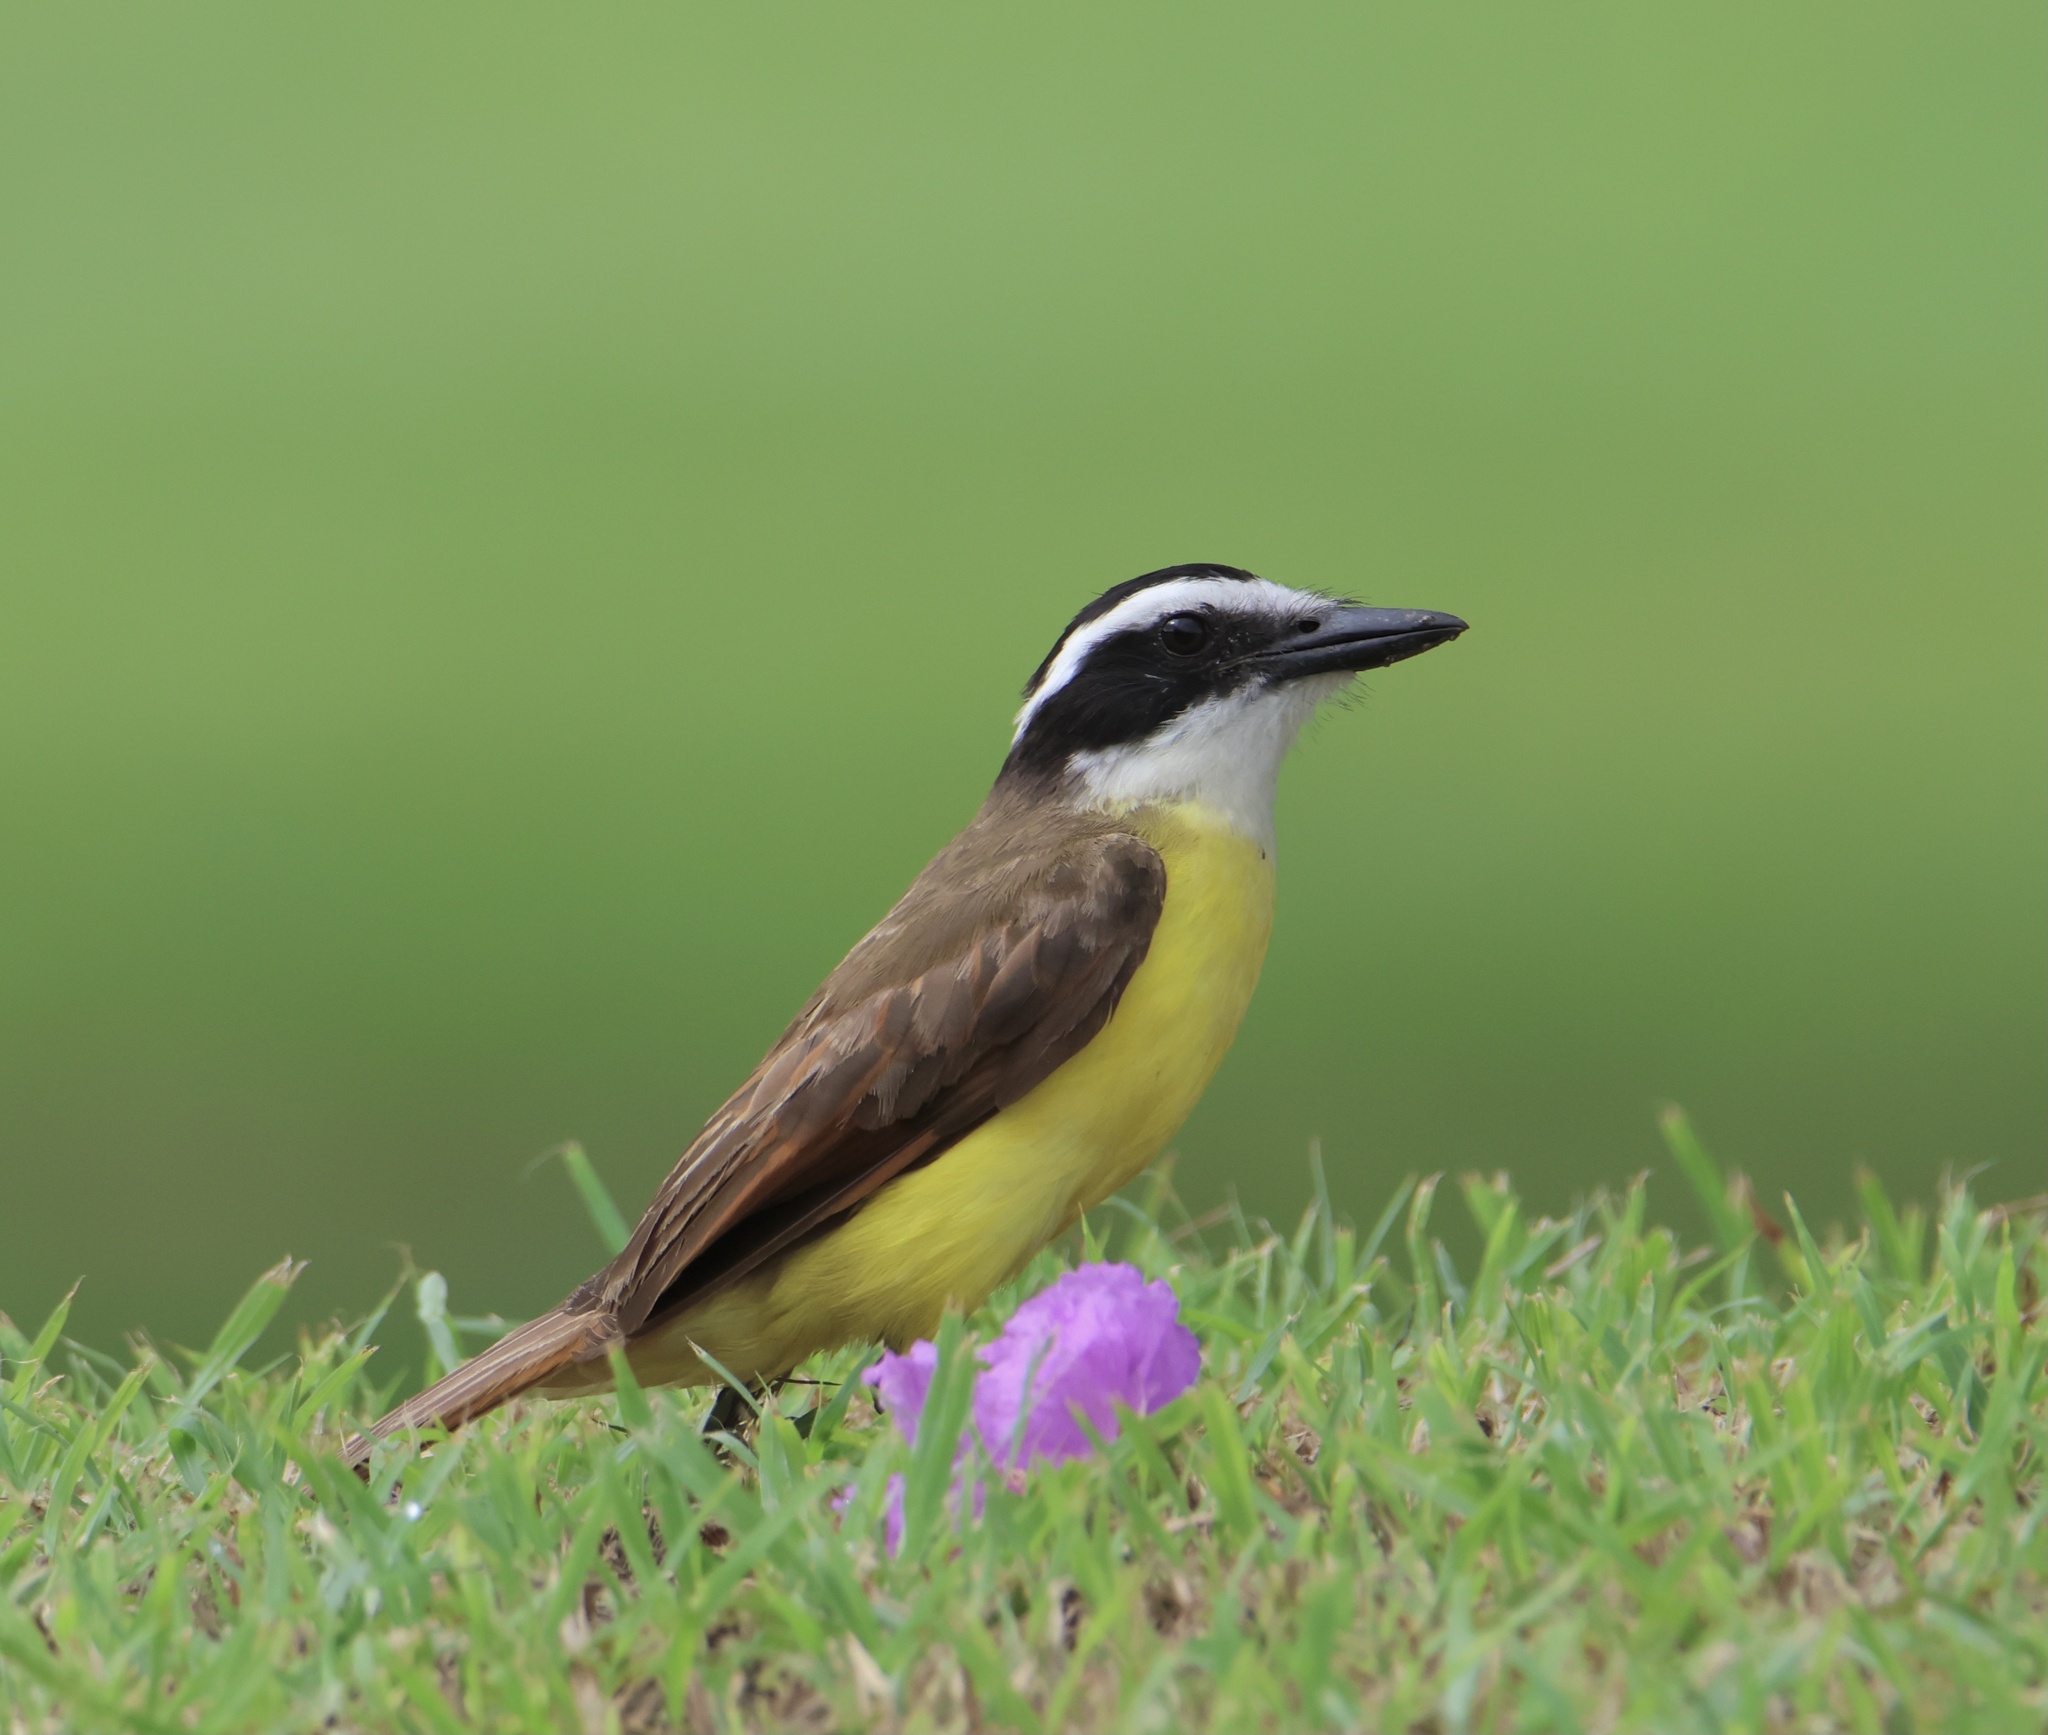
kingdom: Animalia
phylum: Chordata
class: Aves
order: Passeriformes
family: Tyrannidae
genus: Pitangus
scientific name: Pitangus sulphuratus
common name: Great kiskadee
